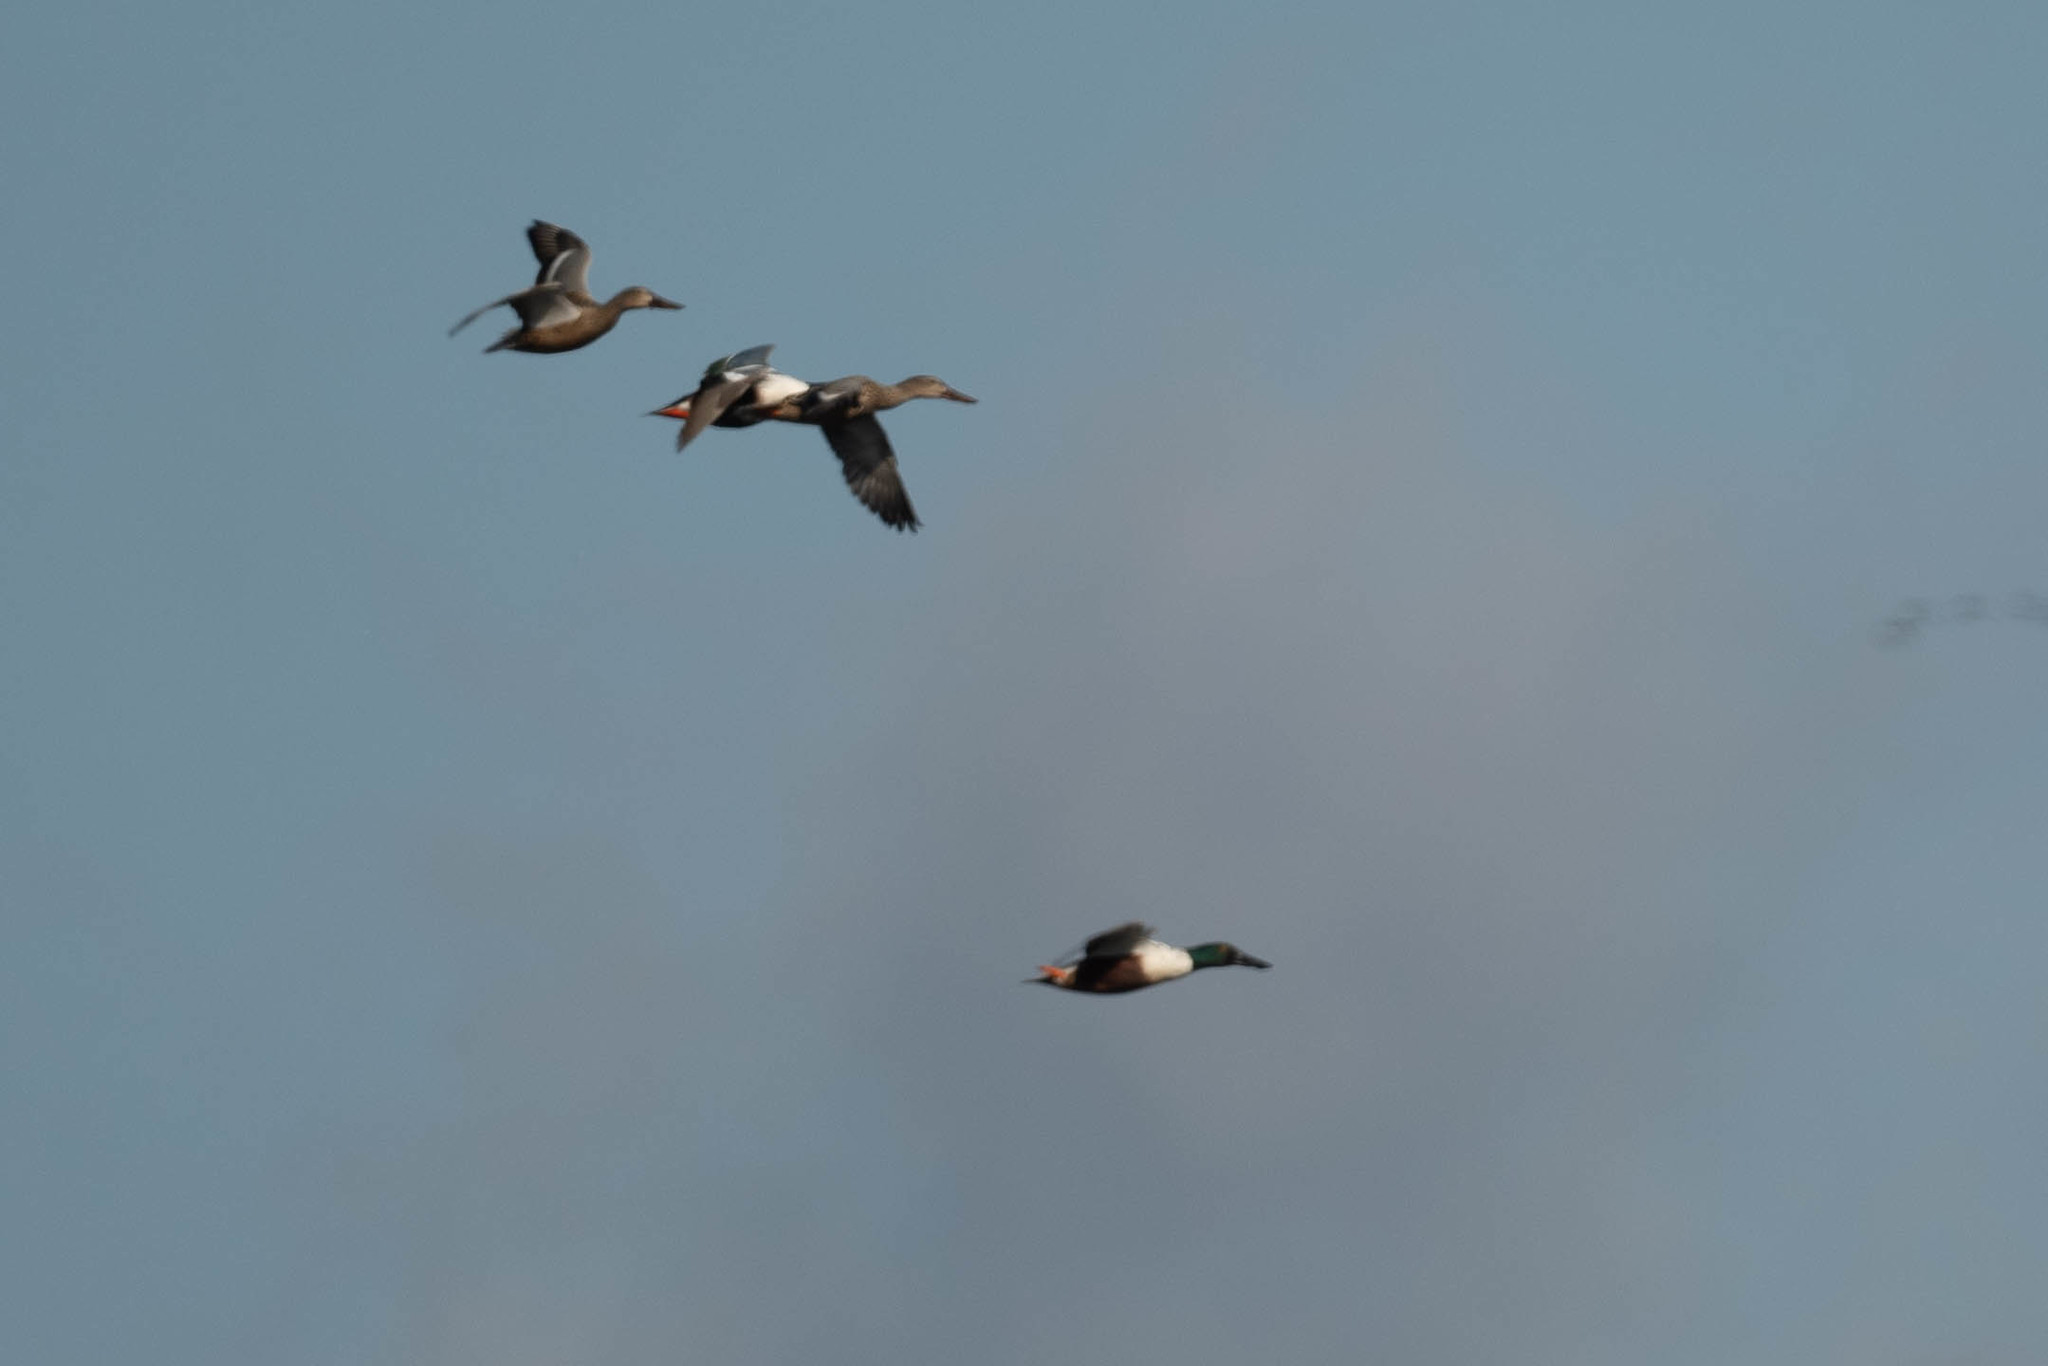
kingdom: Animalia
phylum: Chordata
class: Aves
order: Anseriformes
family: Anatidae
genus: Spatula
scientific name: Spatula clypeata
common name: Northern shoveler
